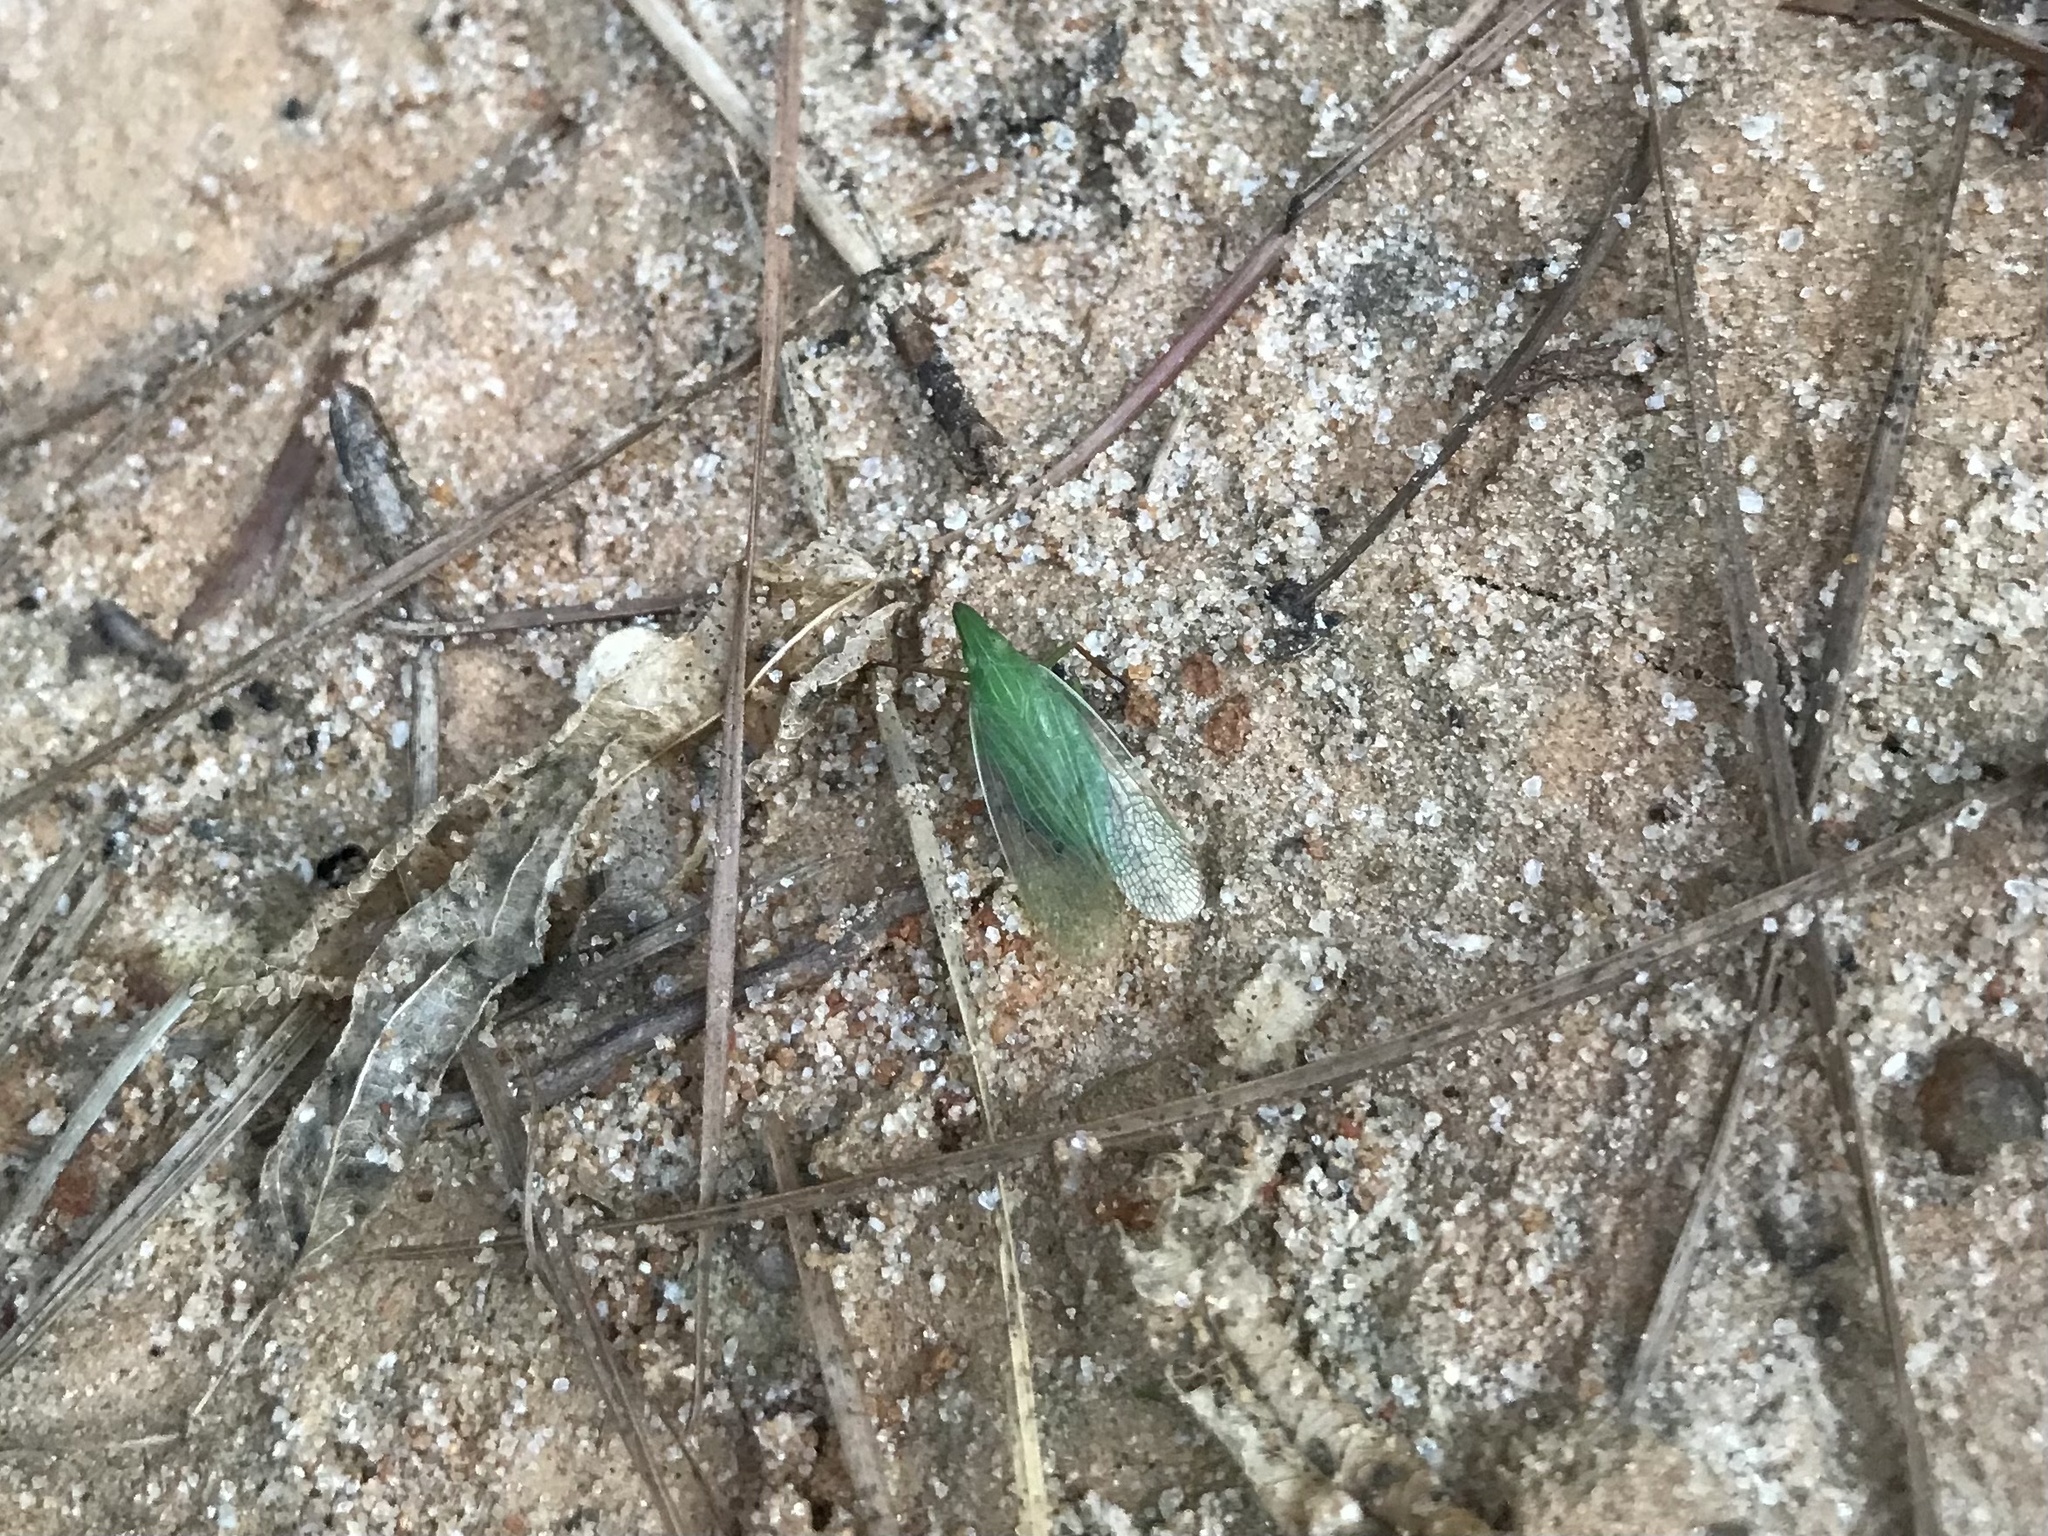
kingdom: Animalia
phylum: Arthropoda
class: Insecta
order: Hemiptera
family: Dictyopharidae
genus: Rhynchomitra
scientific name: Rhynchomitra recurva
